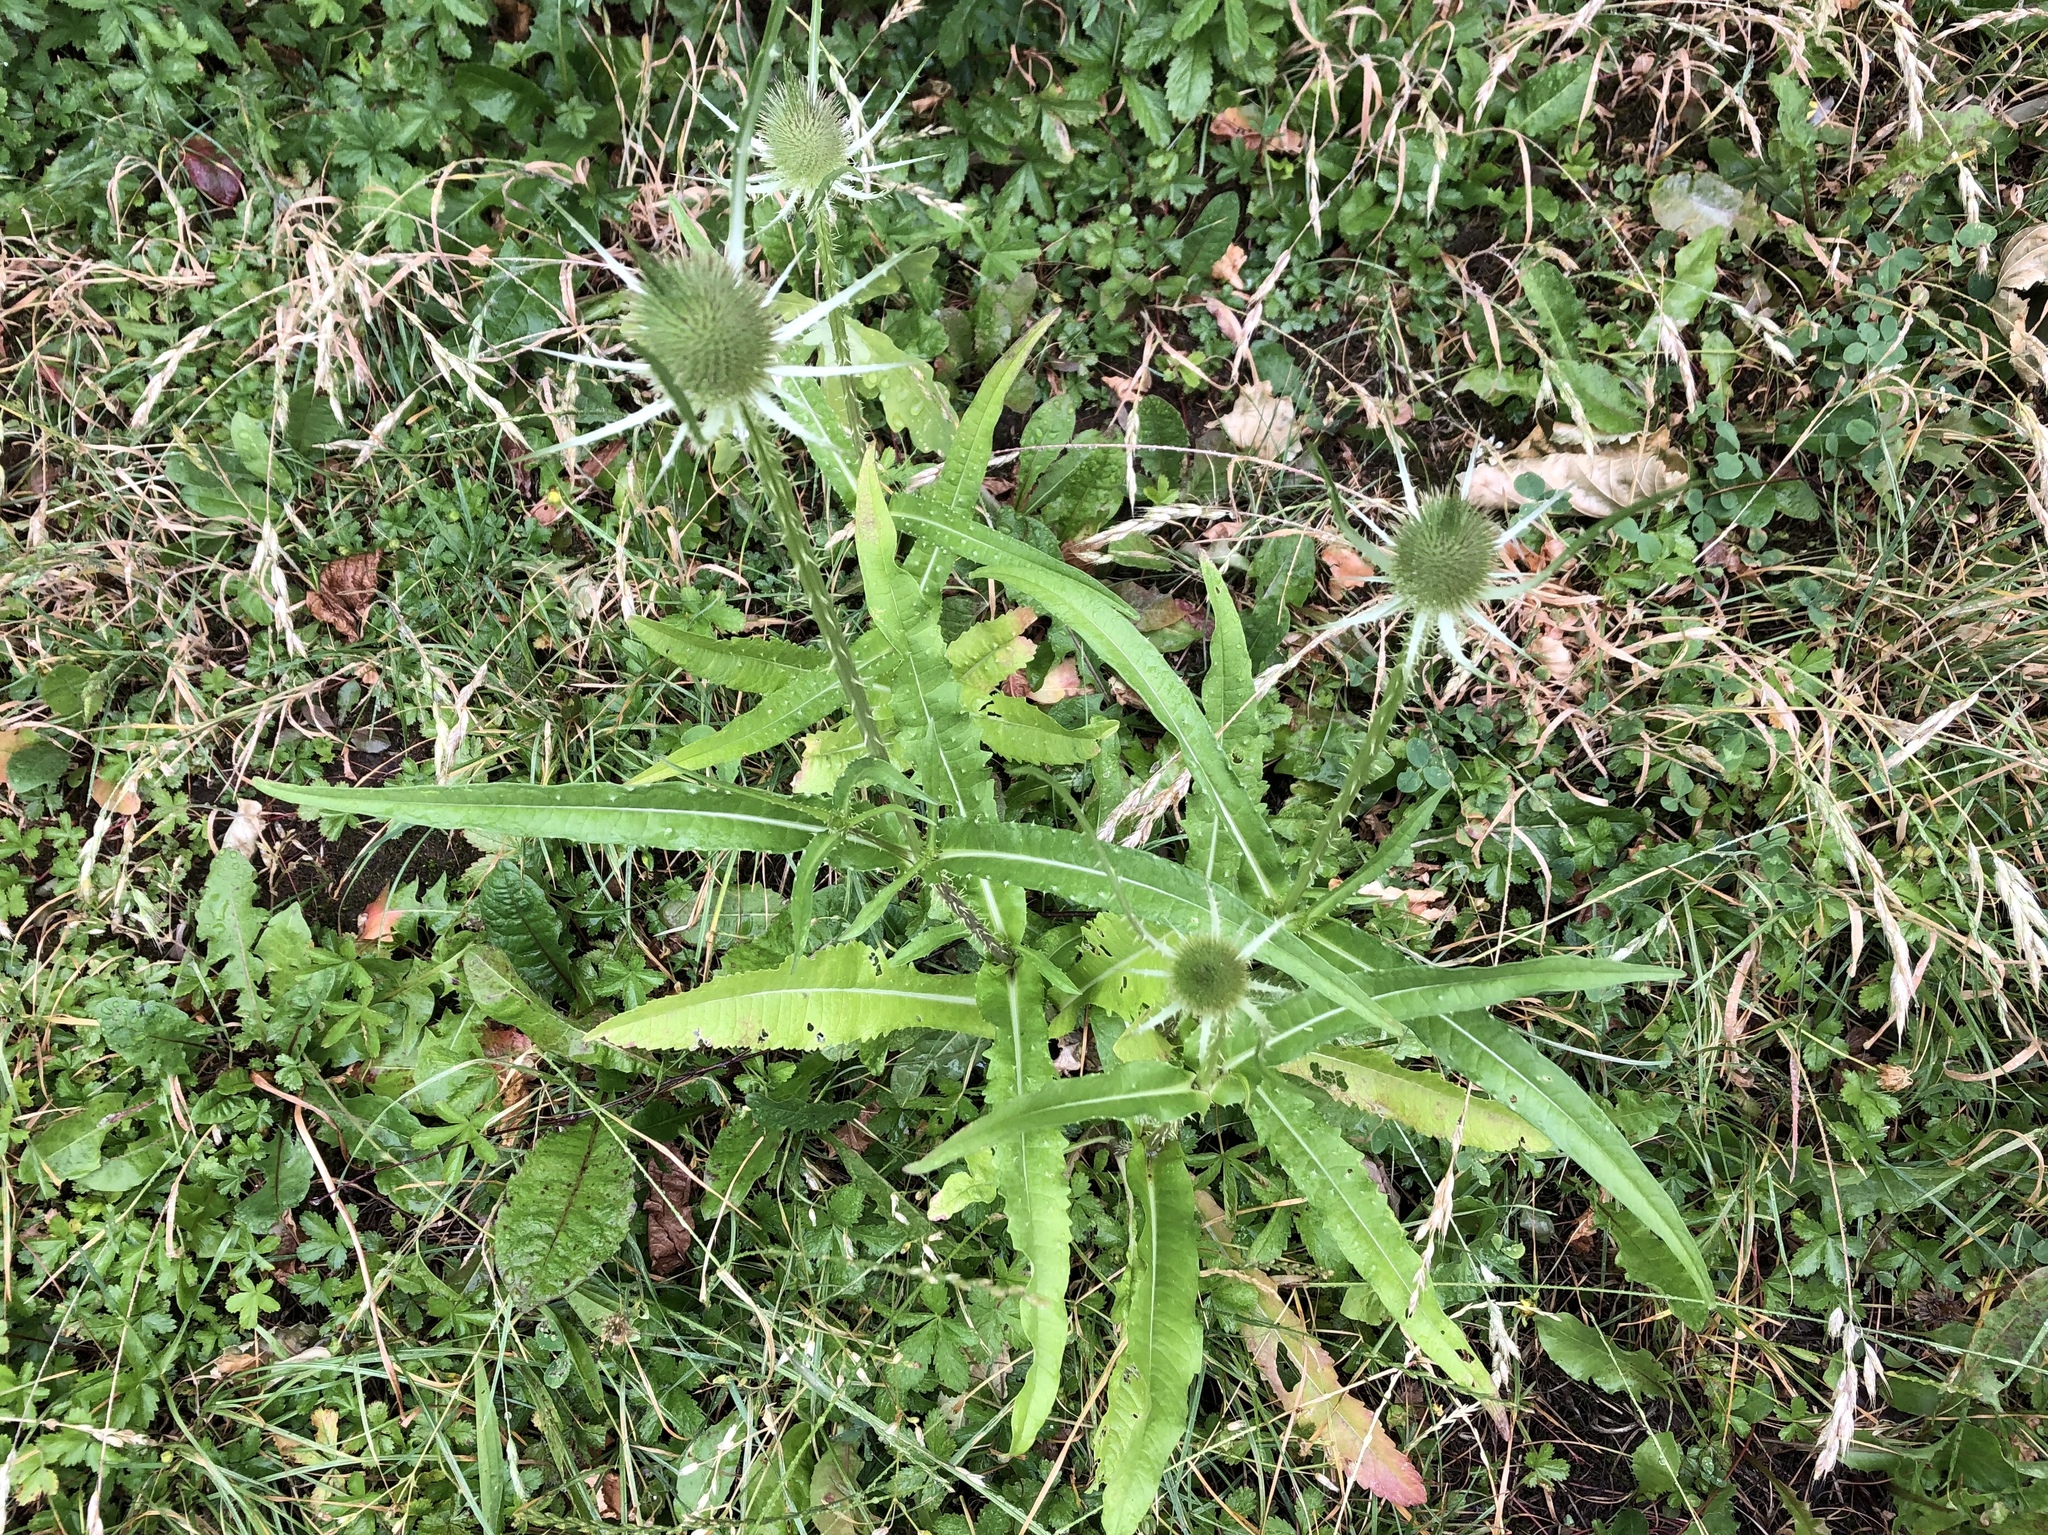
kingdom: Plantae
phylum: Tracheophyta
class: Magnoliopsida
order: Dipsacales
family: Caprifoliaceae
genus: Dipsacus
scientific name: Dipsacus fullonum
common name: Teasel
